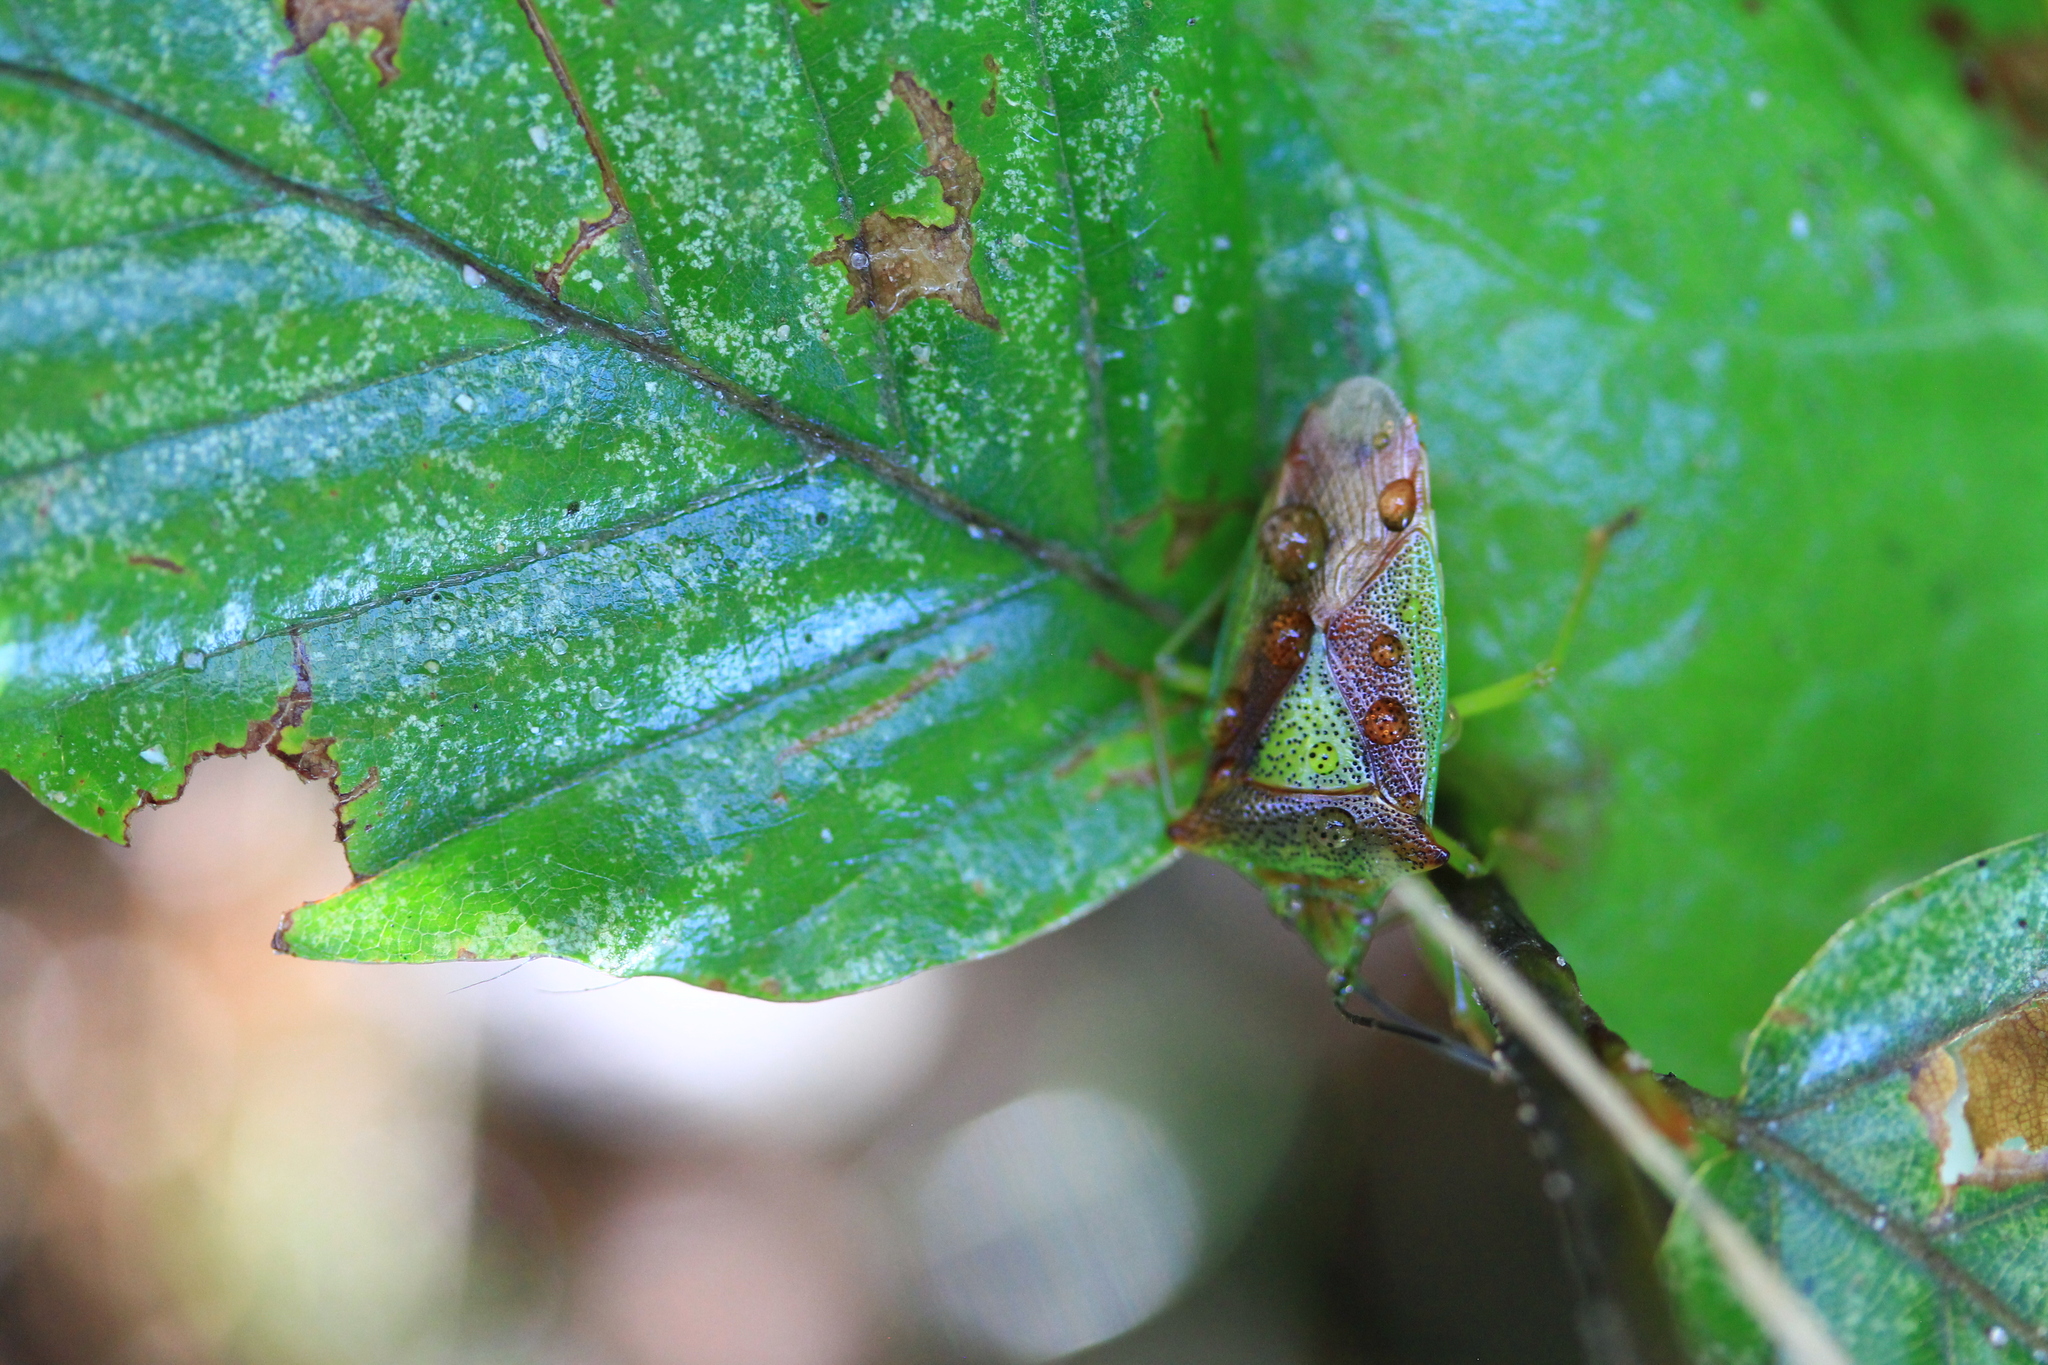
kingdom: Animalia
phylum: Arthropoda
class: Insecta
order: Hemiptera
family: Acanthosomatidae
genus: Acanthosoma
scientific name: Acanthosoma haemorrhoidale
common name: Hawthorn shieldbug
